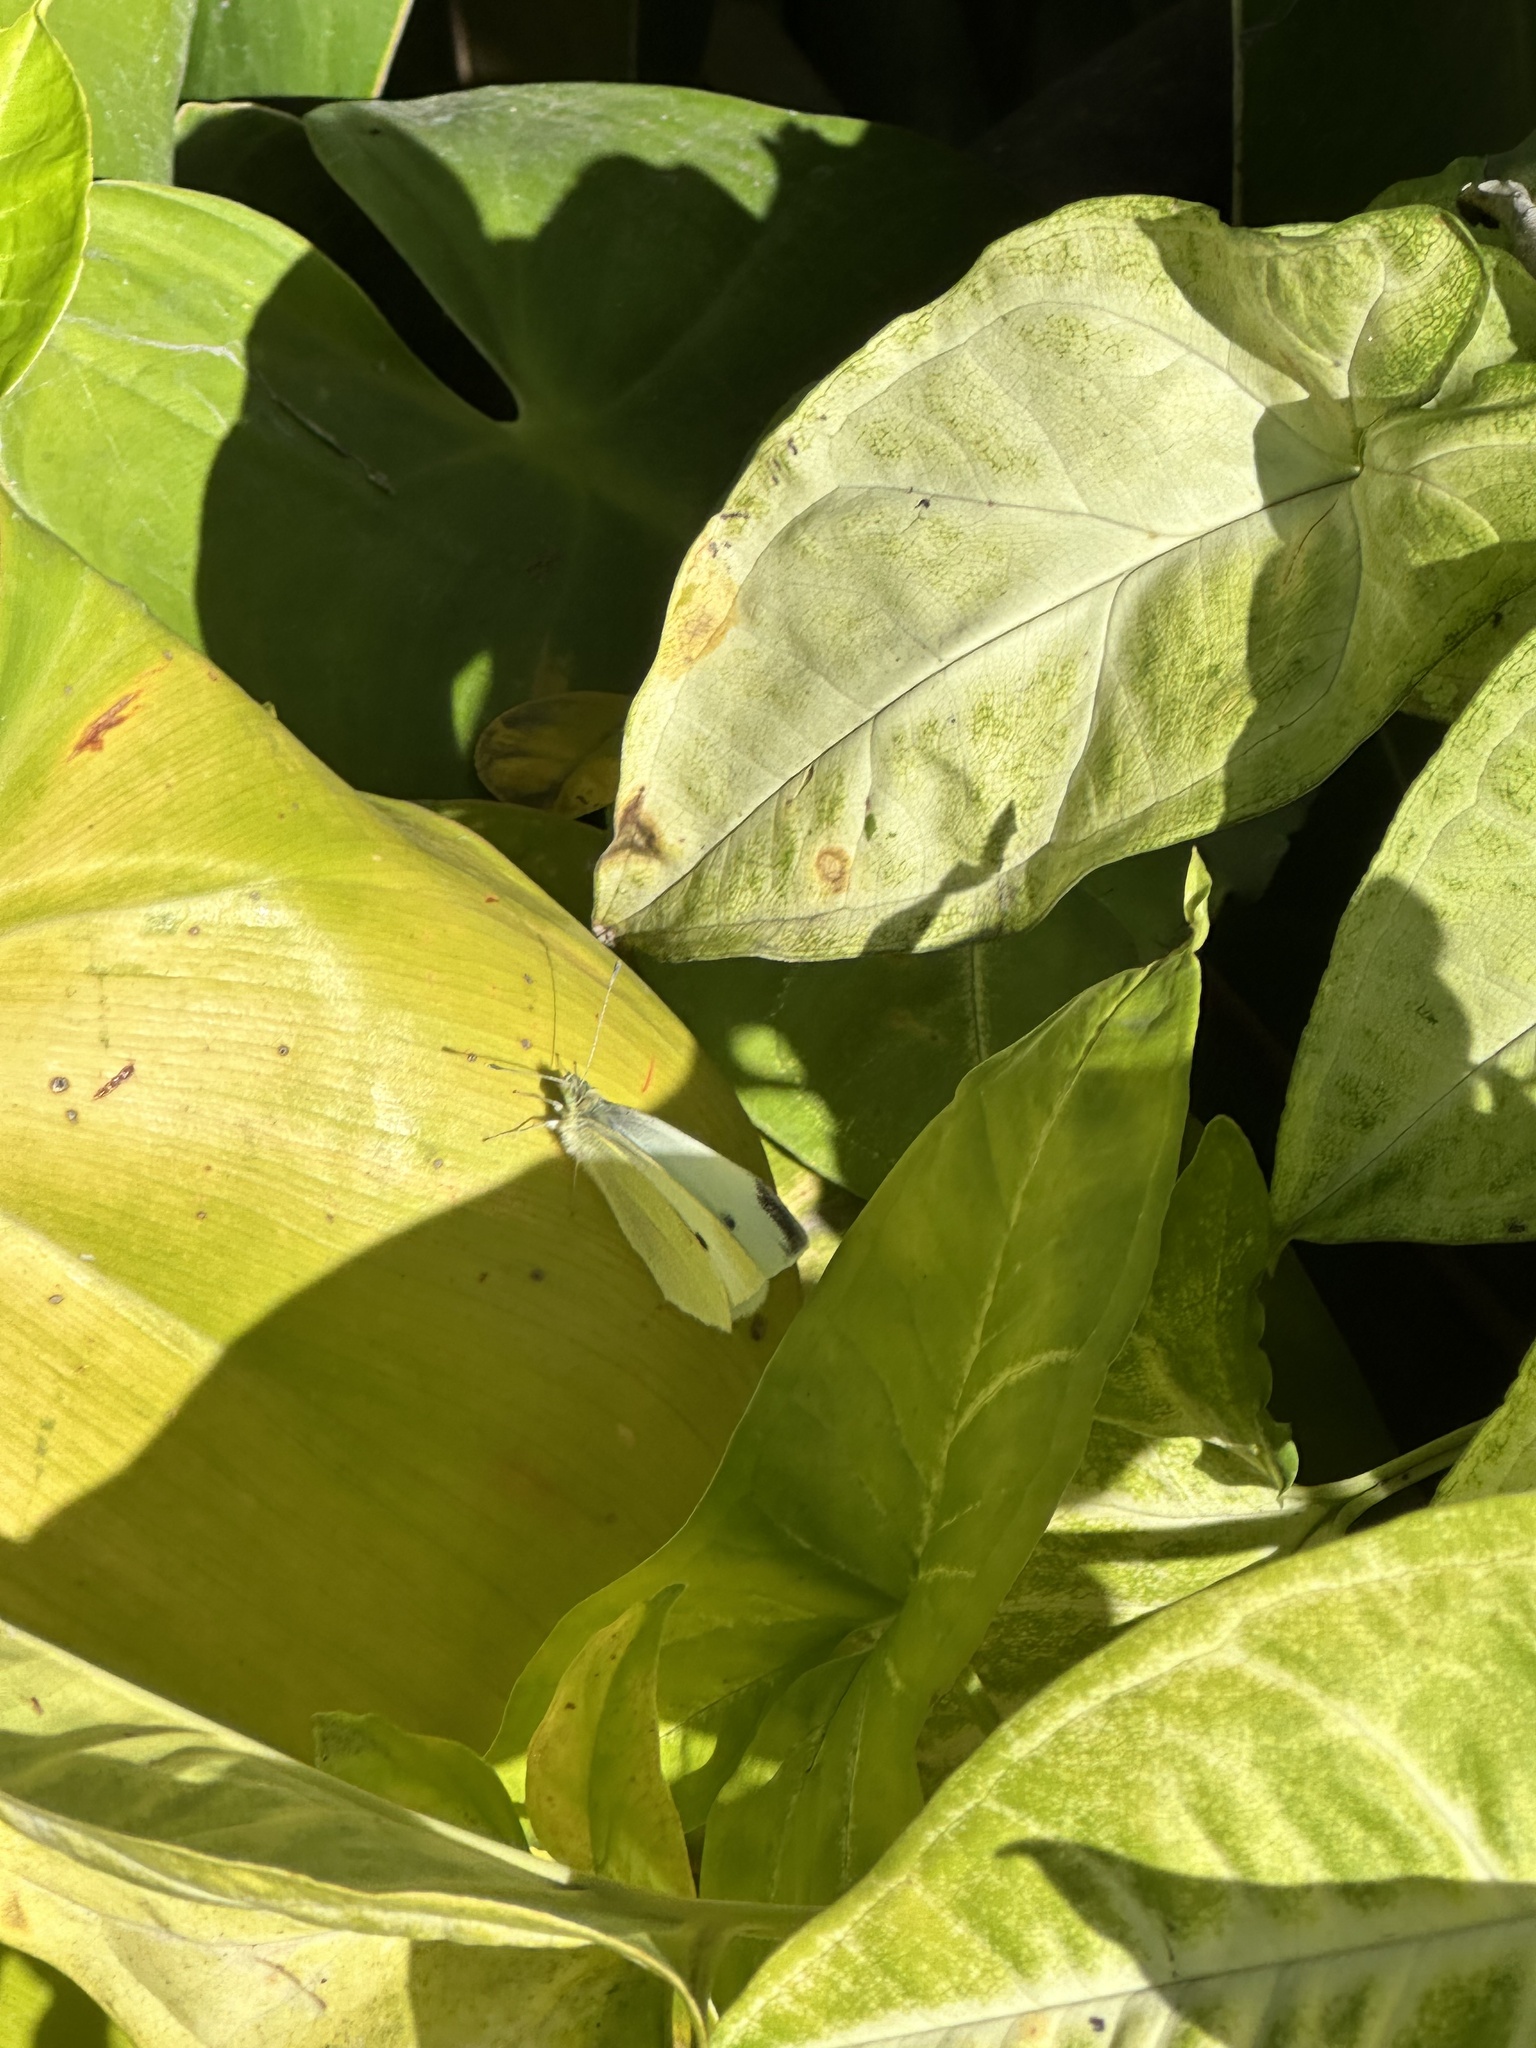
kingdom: Animalia
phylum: Arthropoda
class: Insecta
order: Lepidoptera
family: Pieridae
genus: Pieris
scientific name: Pieris rapae
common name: Small white
